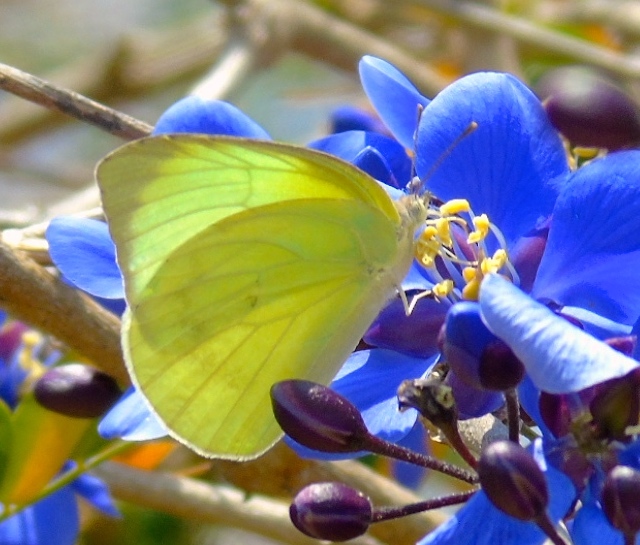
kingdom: Animalia
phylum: Arthropoda
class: Insecta
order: Lepidoptera
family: Pieridae
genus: Aphrissa
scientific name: Aphrissa statira
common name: Statira sulphur
